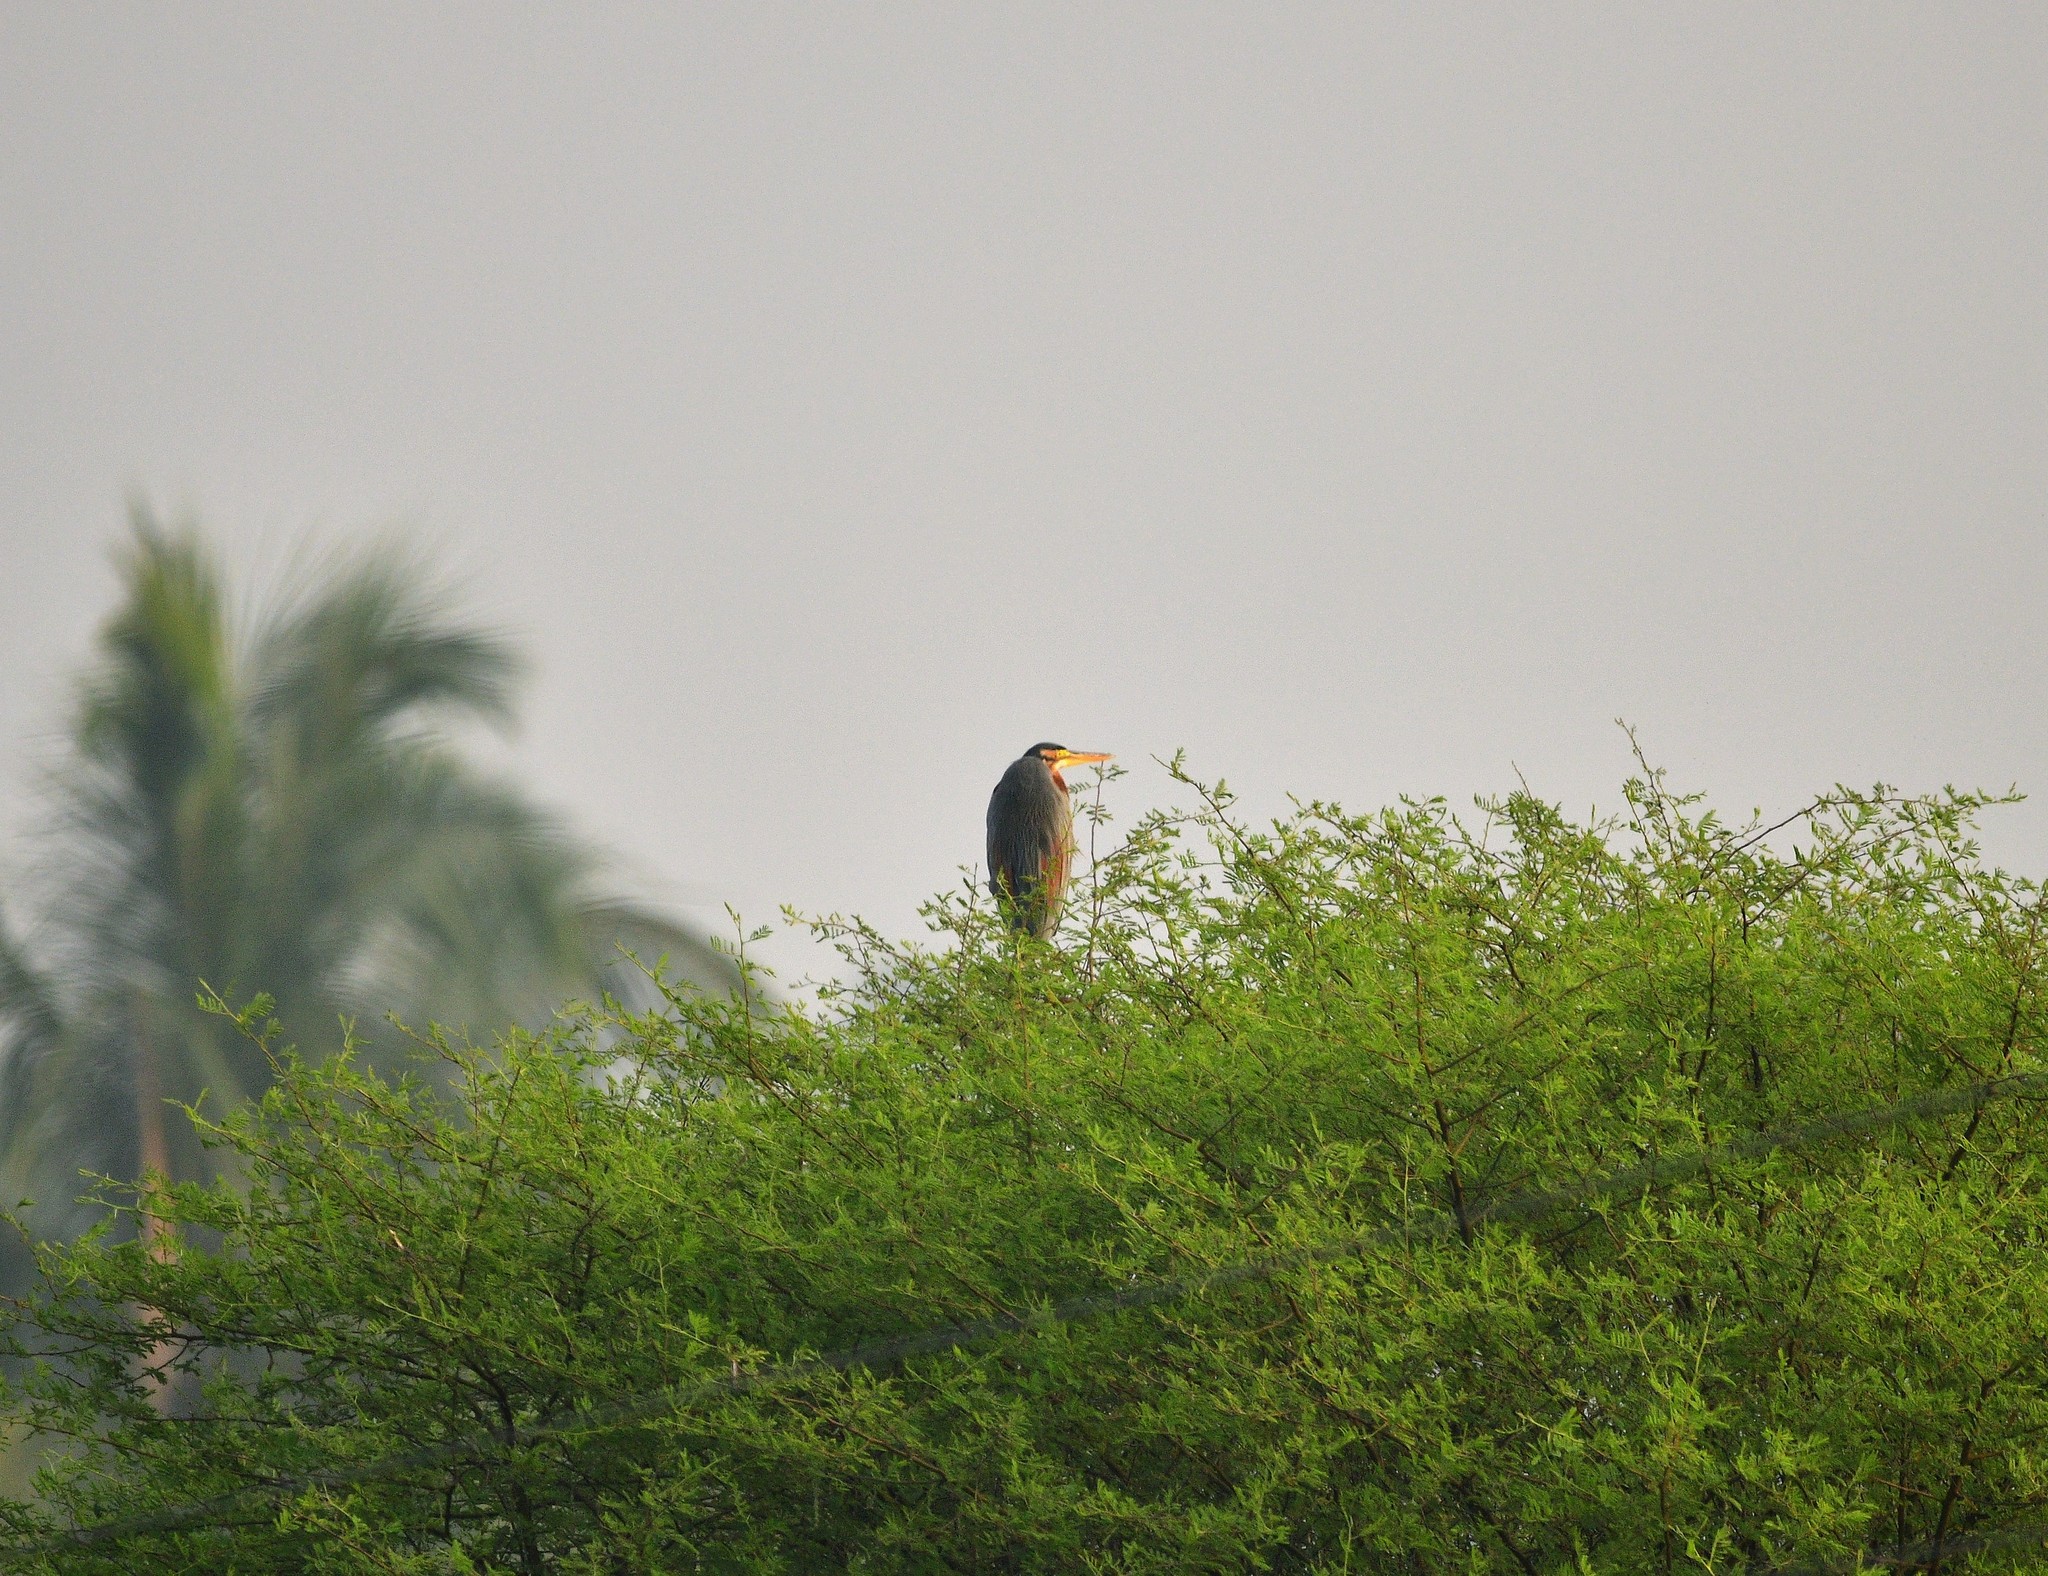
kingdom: Animalia
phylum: Chordata
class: Aves
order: Pelecaniformes
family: Ardeidae
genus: Ardea
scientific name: Ardea purpurea
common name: Purple heron
